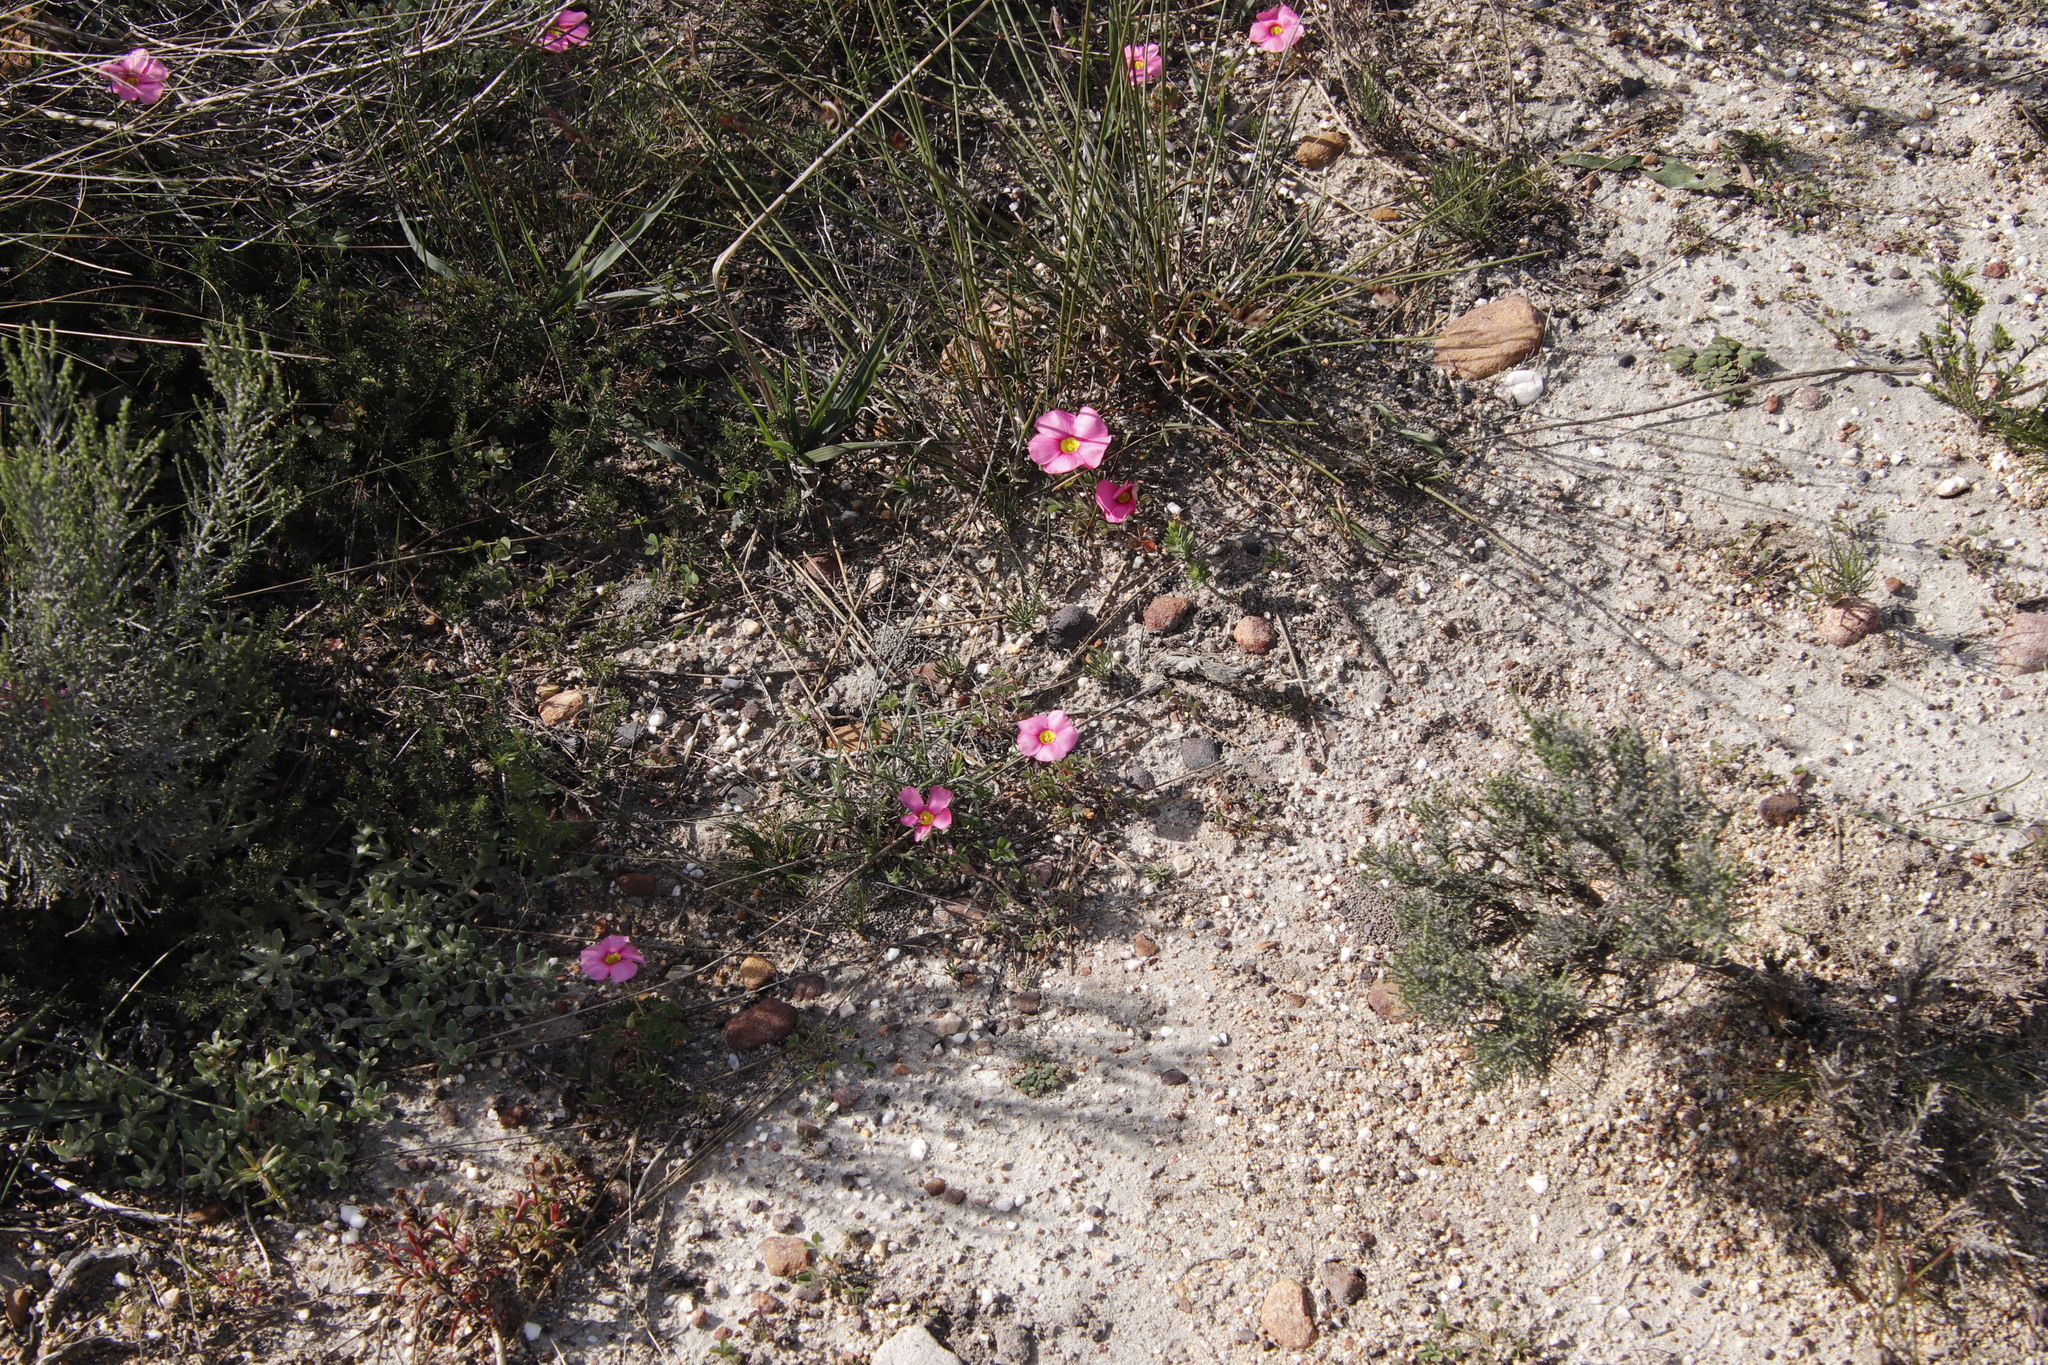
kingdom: Plantae
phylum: Tracheophyta
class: Magnoliopsida
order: Oxalidales
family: Oxalidaceae
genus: Oxalis
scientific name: Oxalis obtusa
